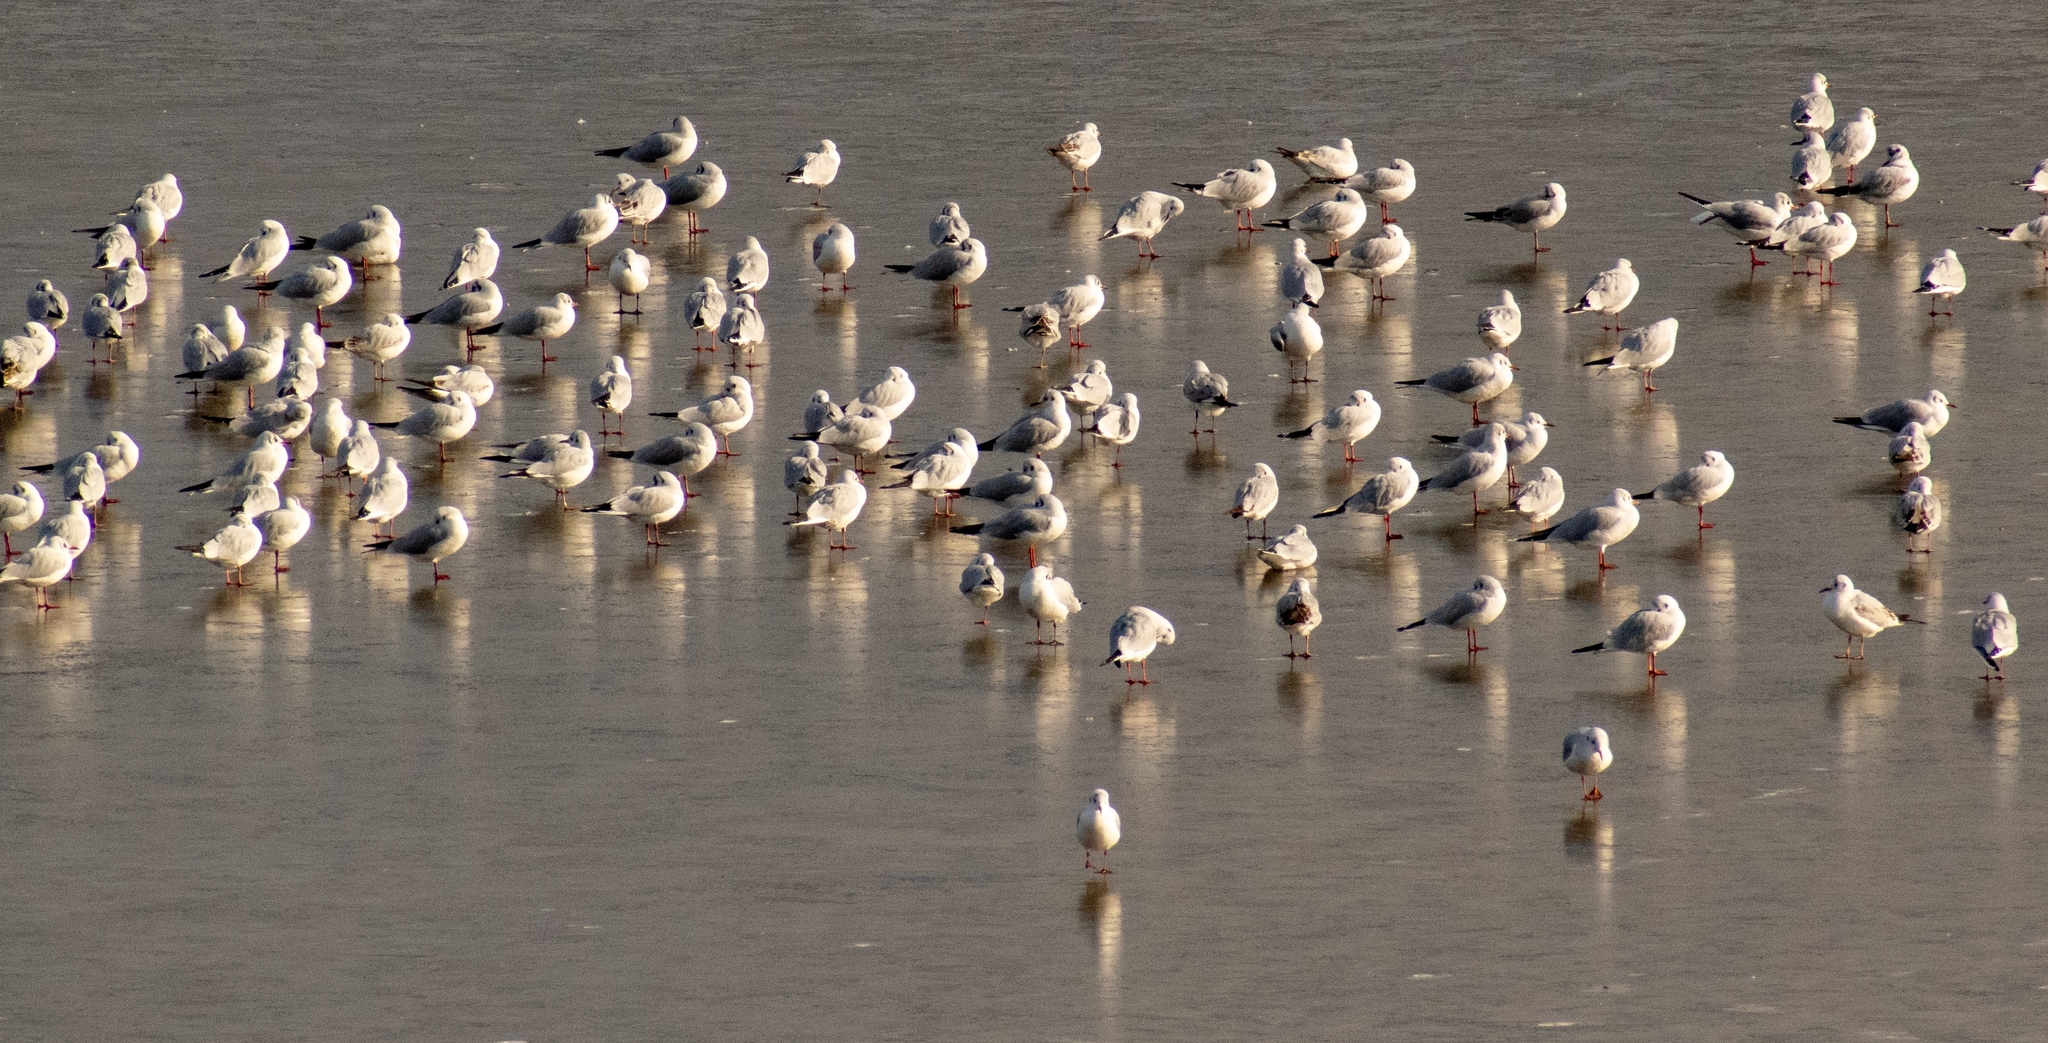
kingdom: Animalia
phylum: Chordata
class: Aves
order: Charadriiformes
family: Laridae
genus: Chroicocephalus
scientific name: Chroicocephalus ridibundus
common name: Black-headed gull
